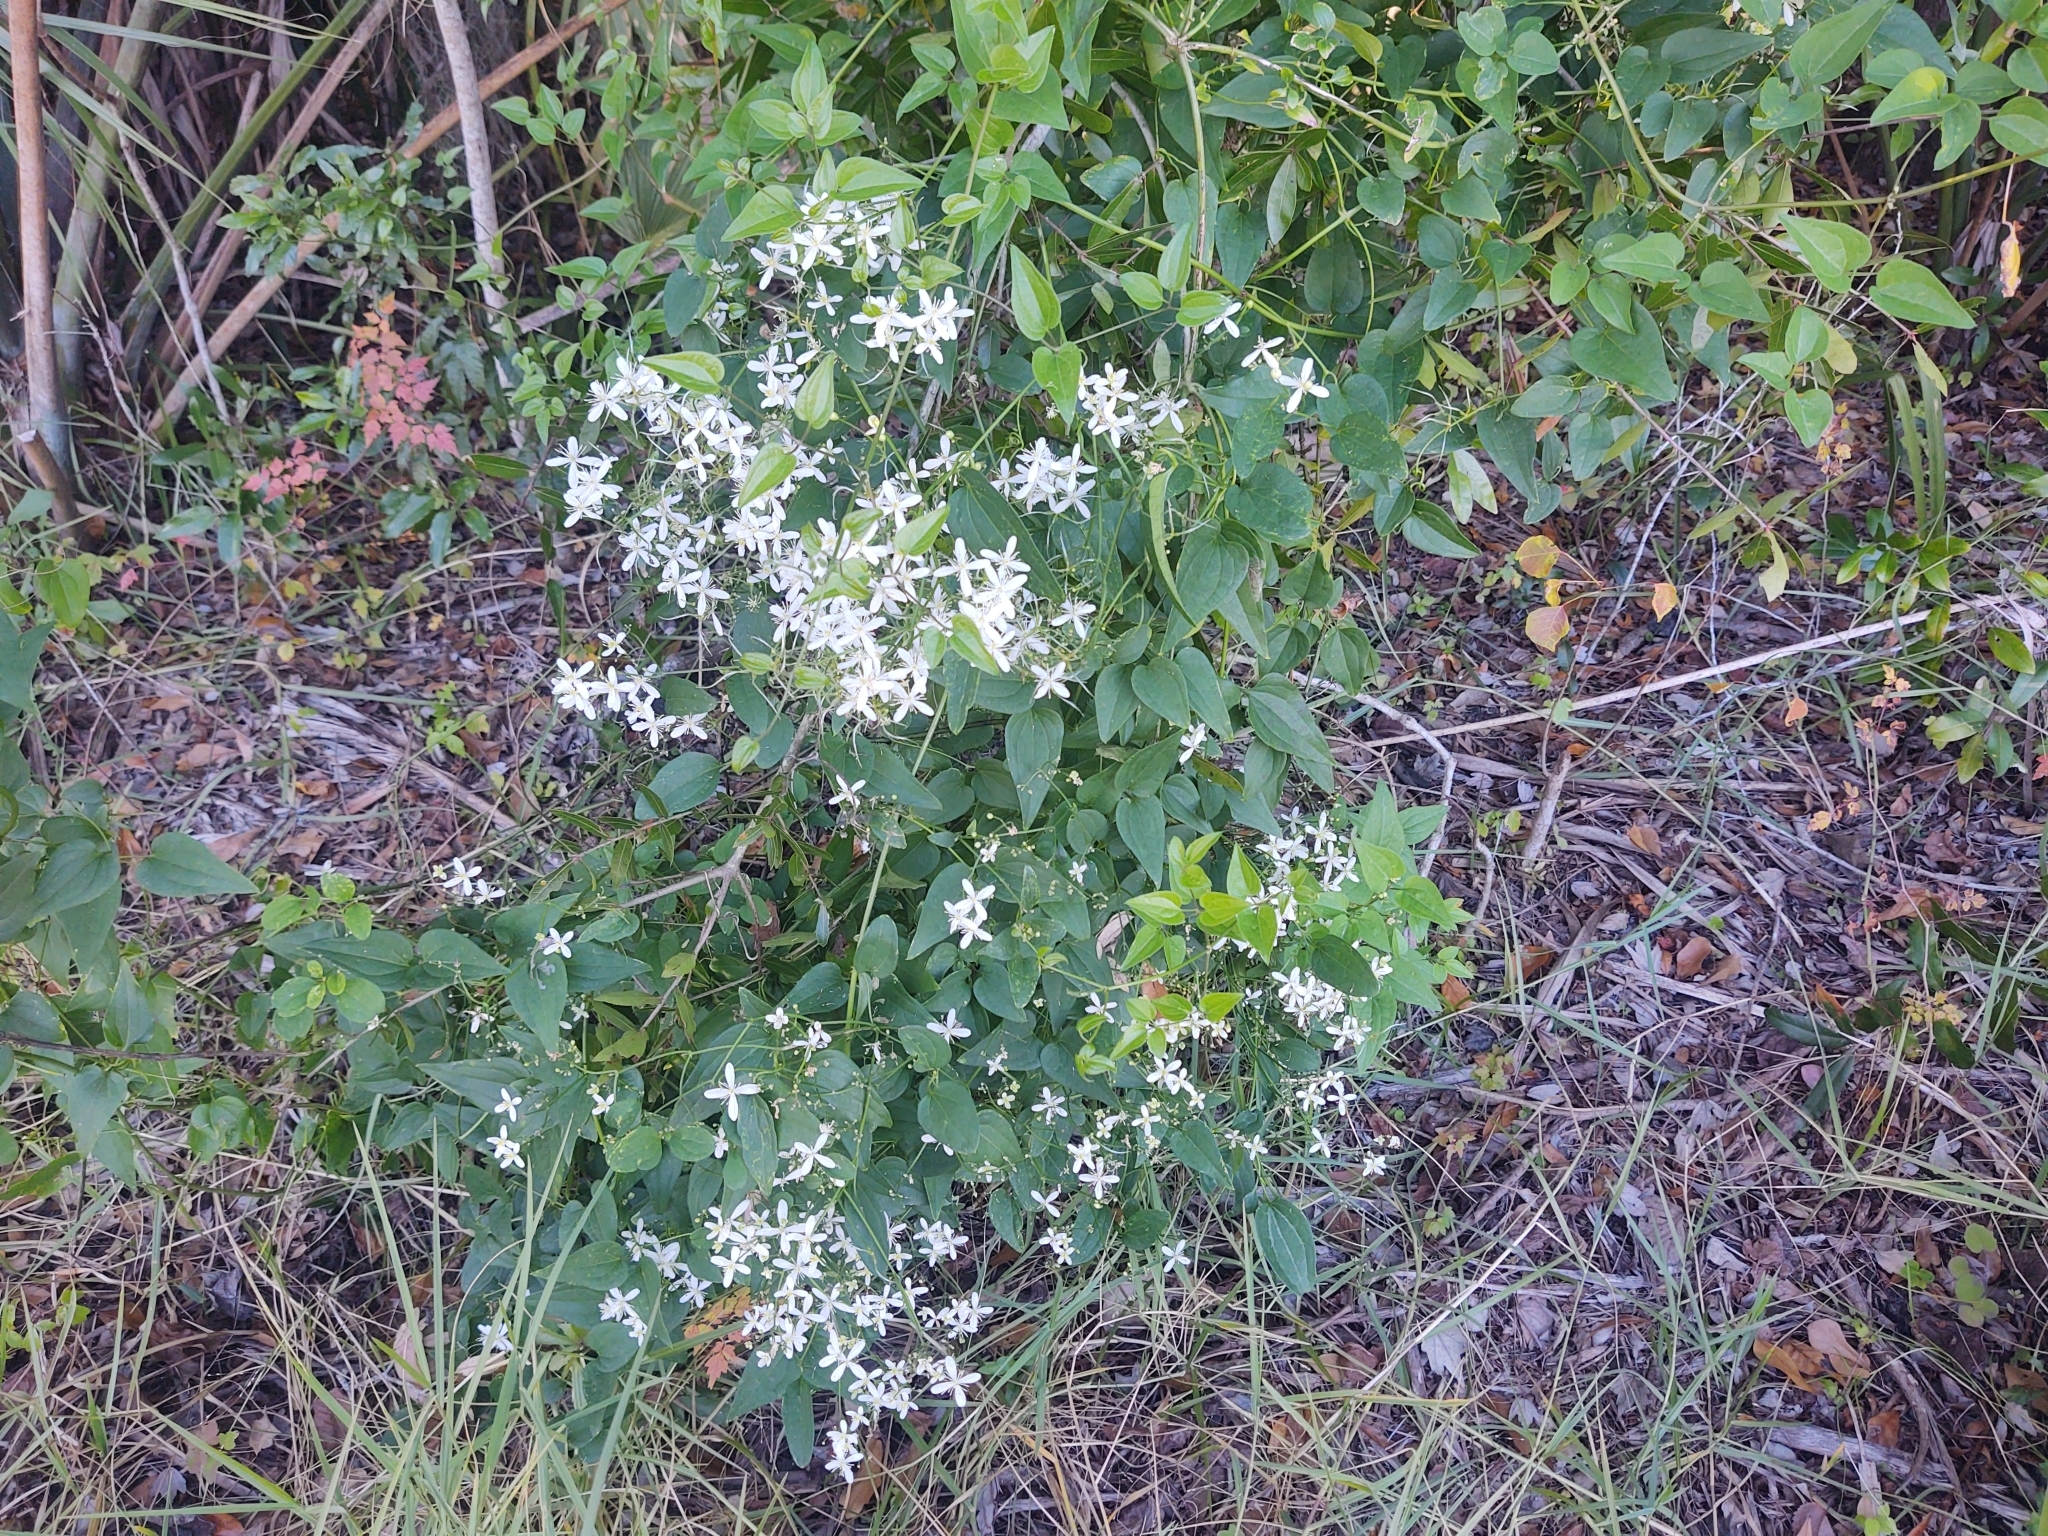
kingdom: Plantae
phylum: Tracheophyta
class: Magnoliopsida
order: Ranunculales
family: Ranunculaceae
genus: Clematis
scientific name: Clematis terniflora
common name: Sweet autumn clematis
